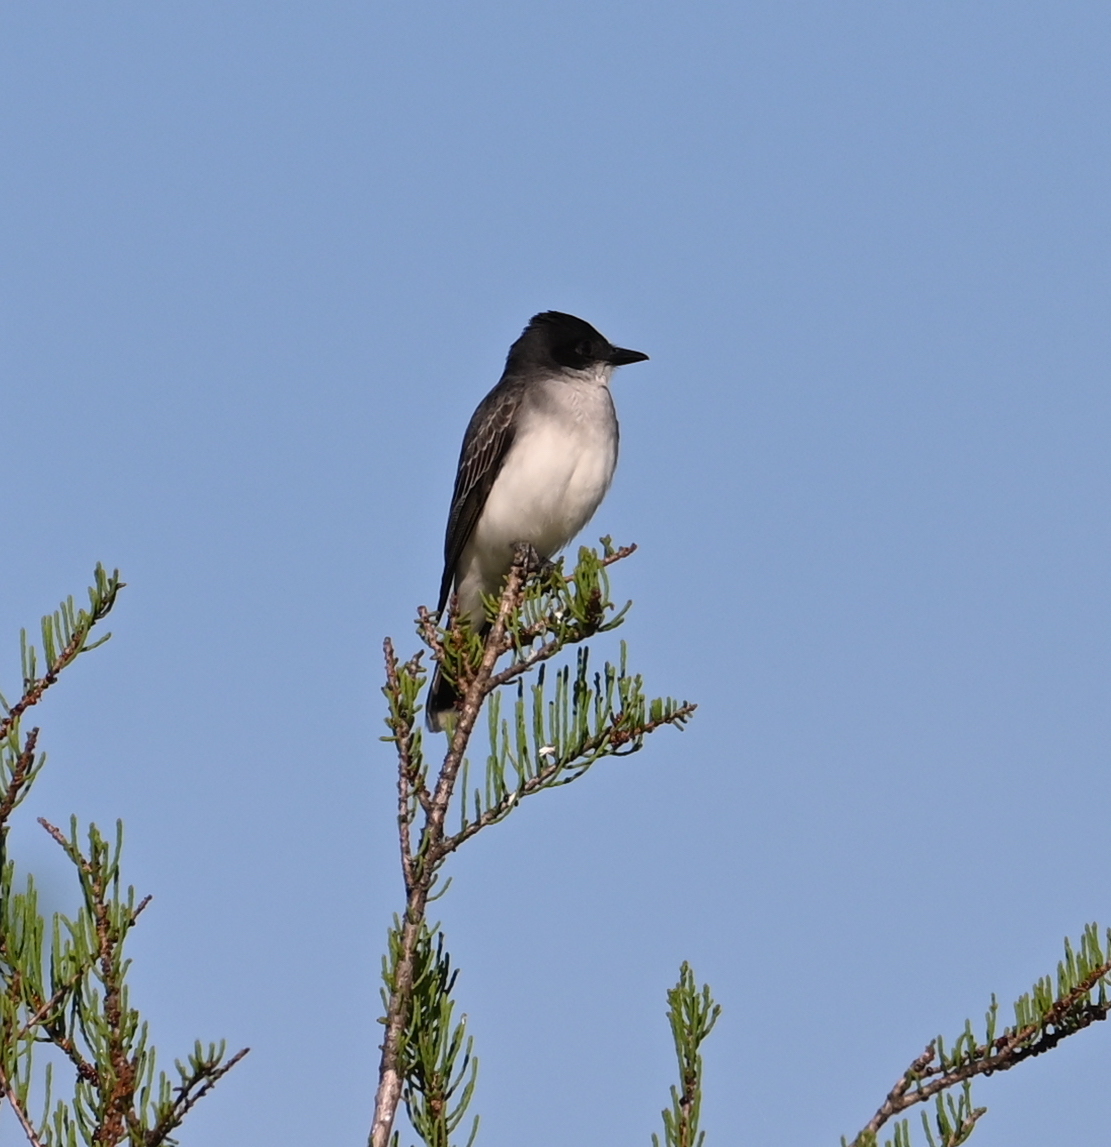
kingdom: Animalia
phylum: Chordata
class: Aves
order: Passeriformes
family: Tyrannidae
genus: Tyrannus
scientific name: Tyrannus tyrannus
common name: Eastern kingbird
